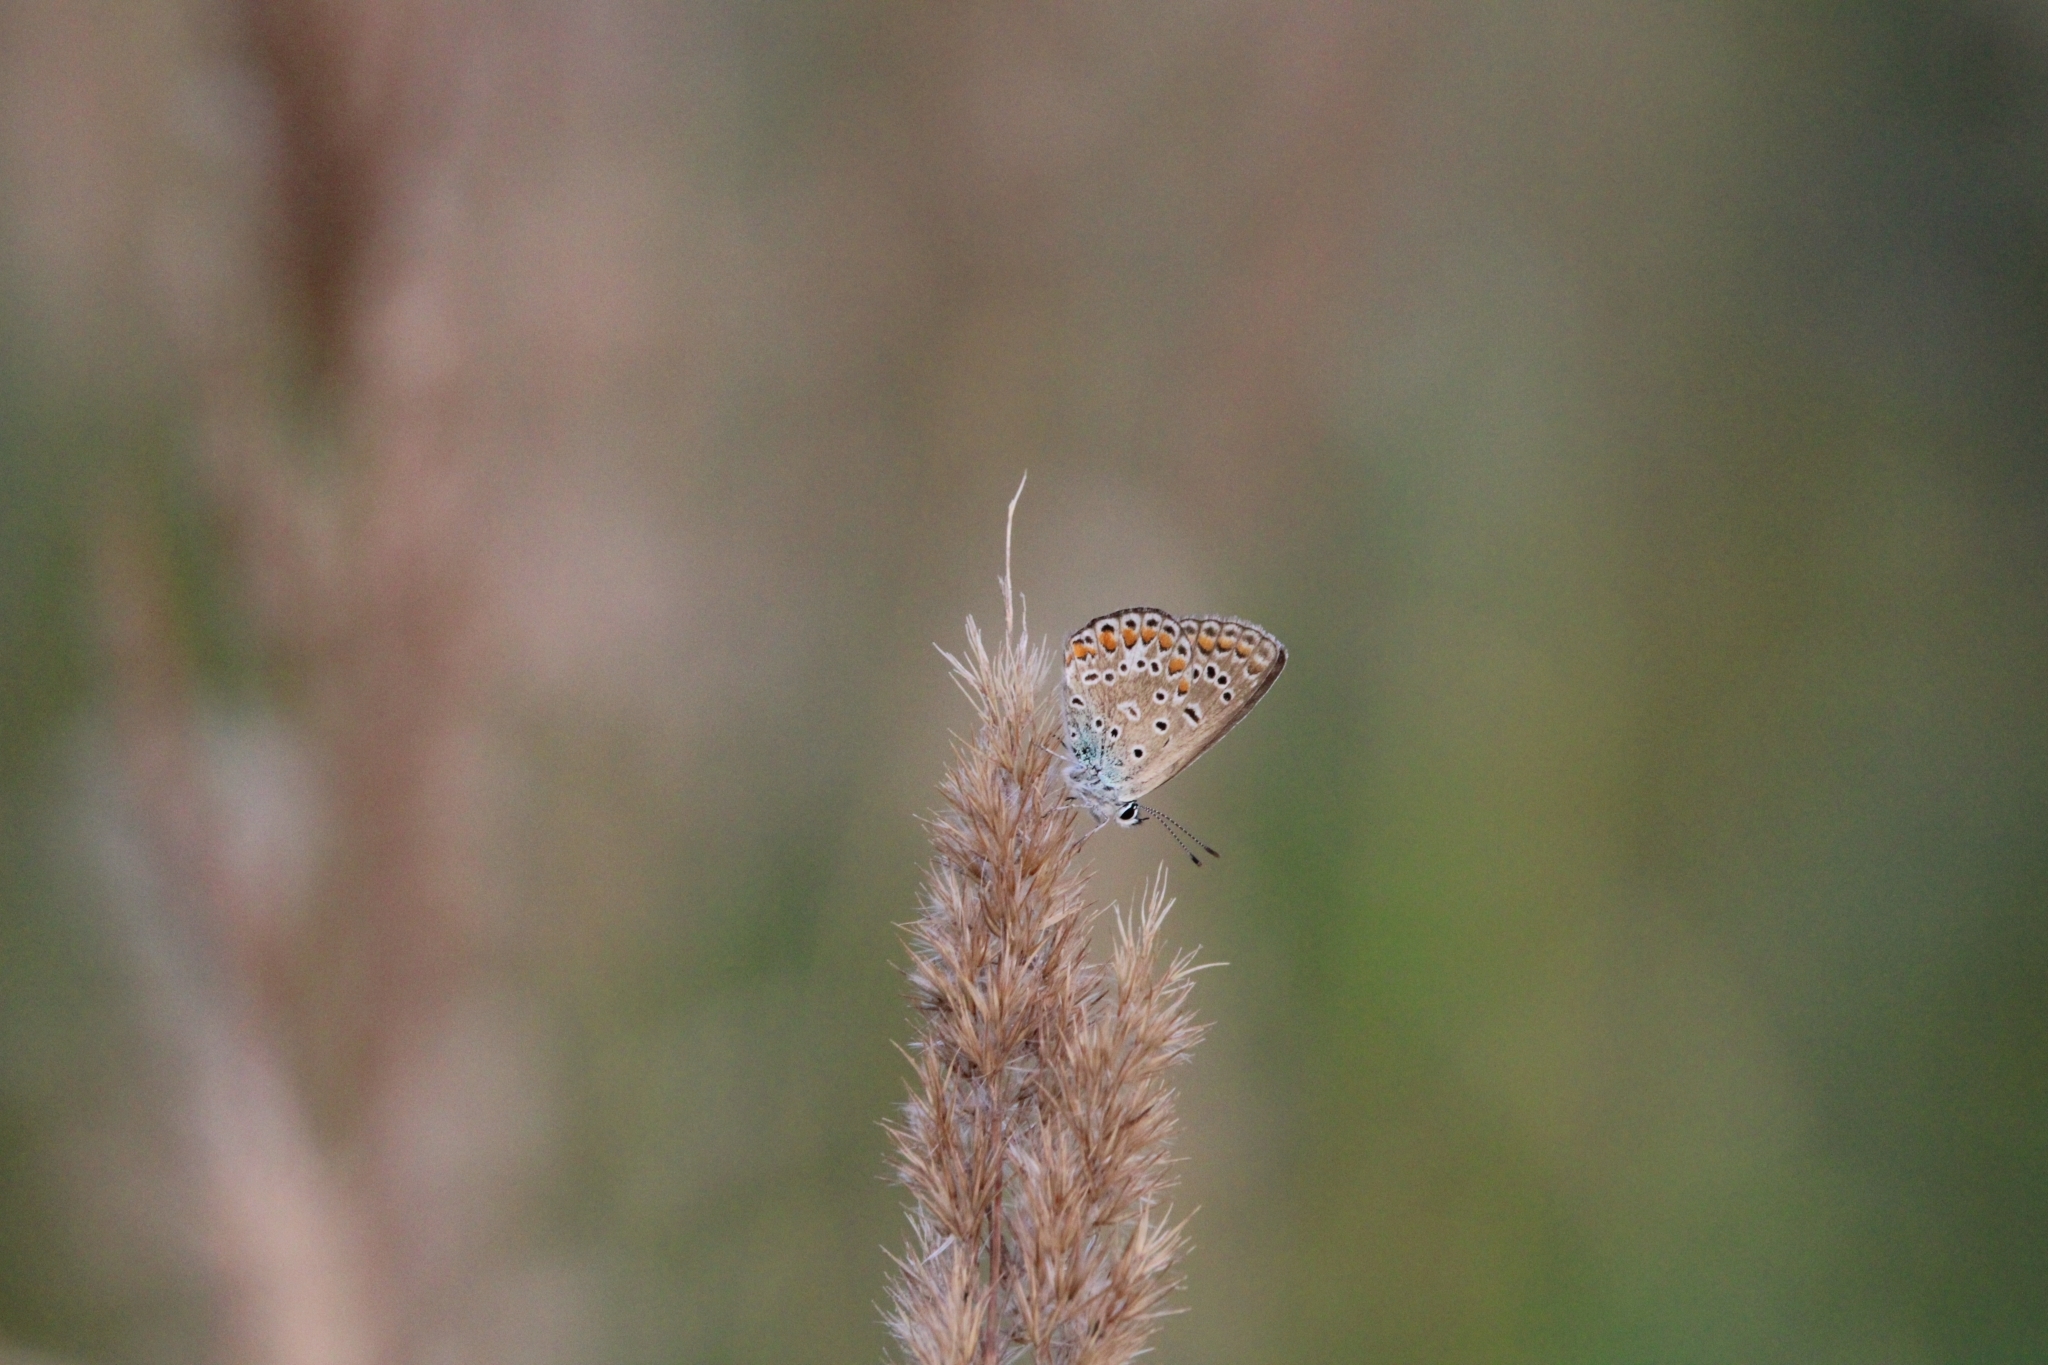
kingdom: Animalia
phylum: Arthropoda
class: Insecta
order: Lepidoptera
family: Lycaenidae
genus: Polyommatus
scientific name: Polyommatus icarus
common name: Common blue
